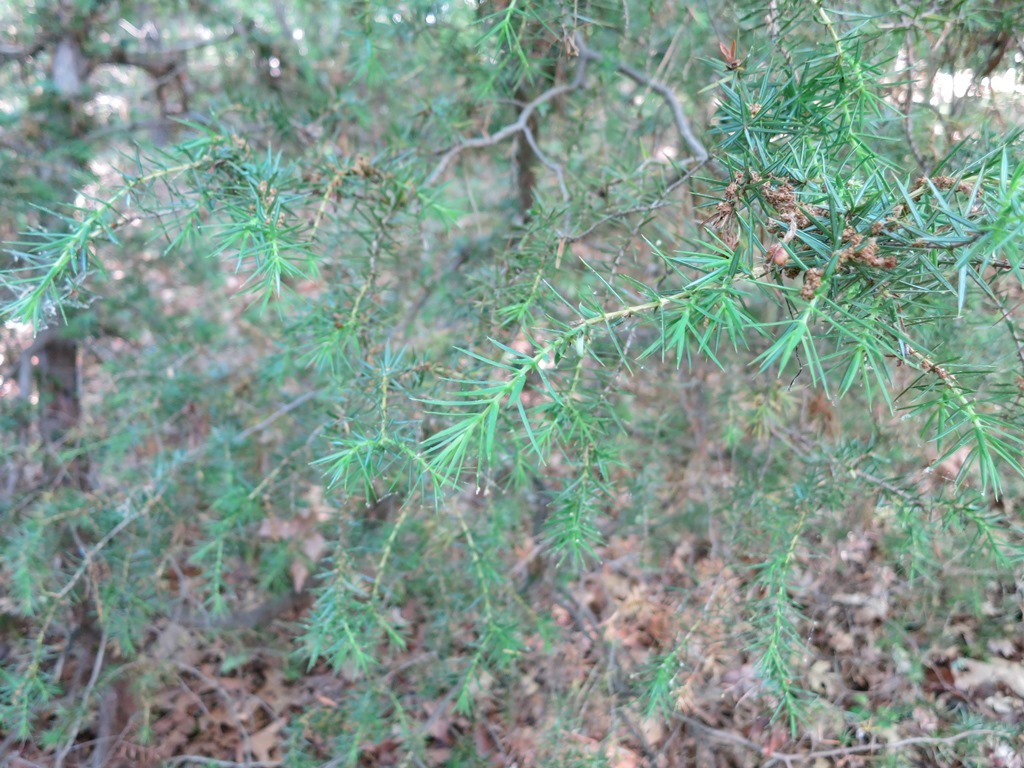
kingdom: Plantae
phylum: Tracheophyta
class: Pinopsida
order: Pinales
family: Cupressaceae
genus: Juniperus
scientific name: Juniperus virginiana
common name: Red juniper
